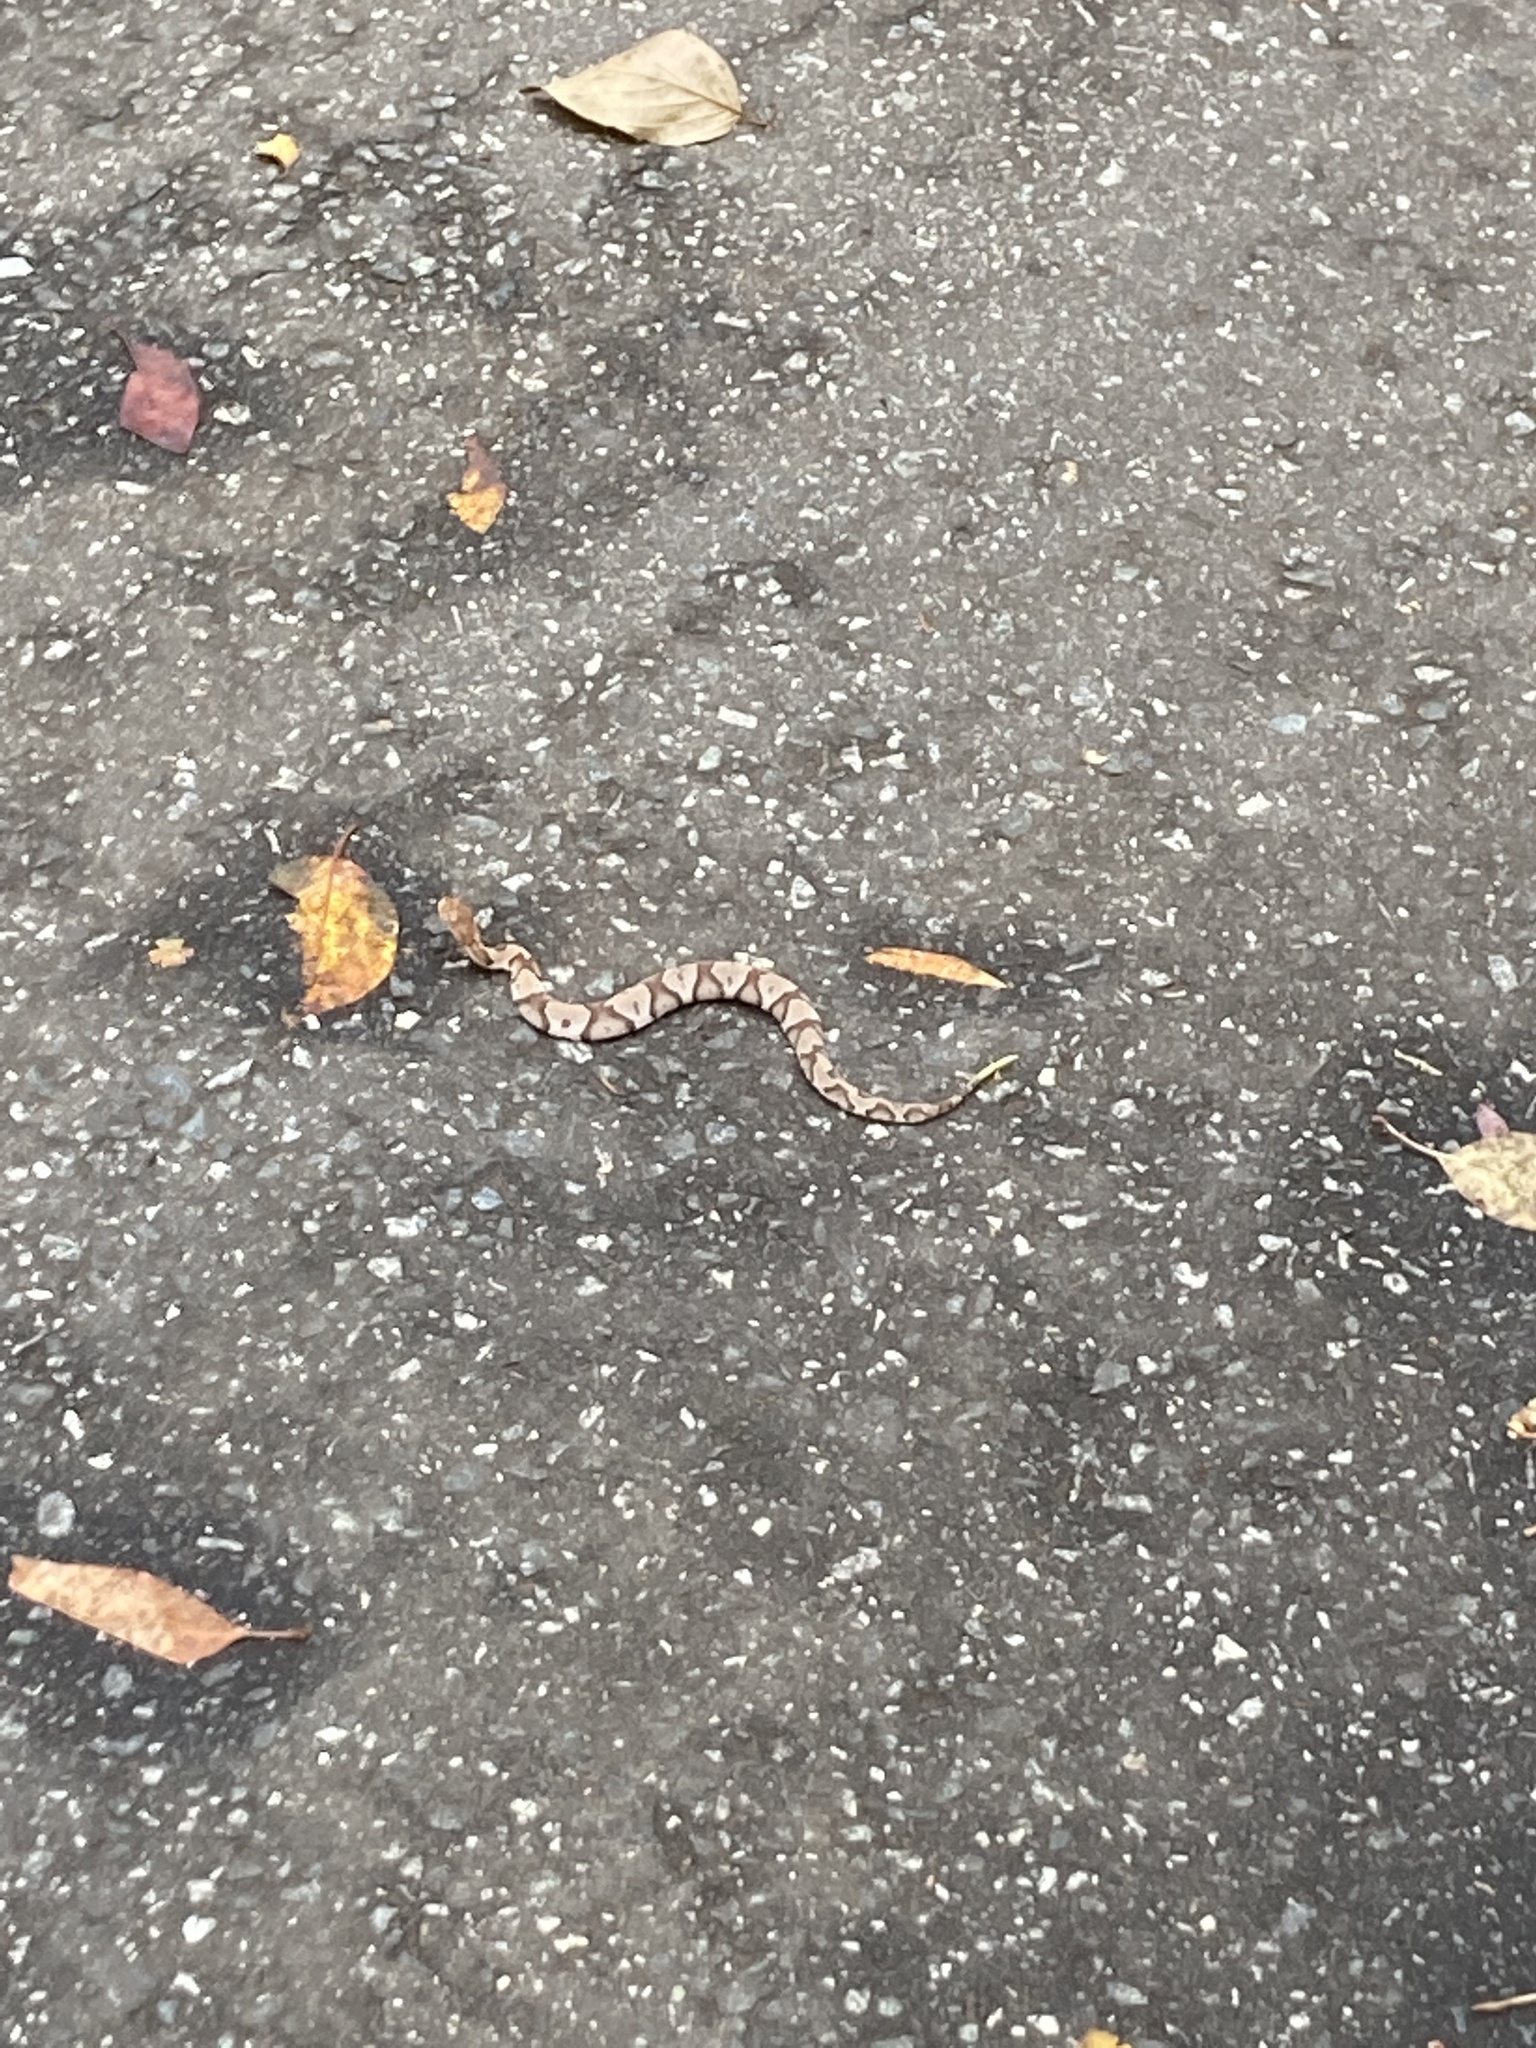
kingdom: Animalia
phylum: Chordata
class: Squamata
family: Viperidae
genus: Agkistrodon
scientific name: Agkistrodon contortrix
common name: Northern copperhead
